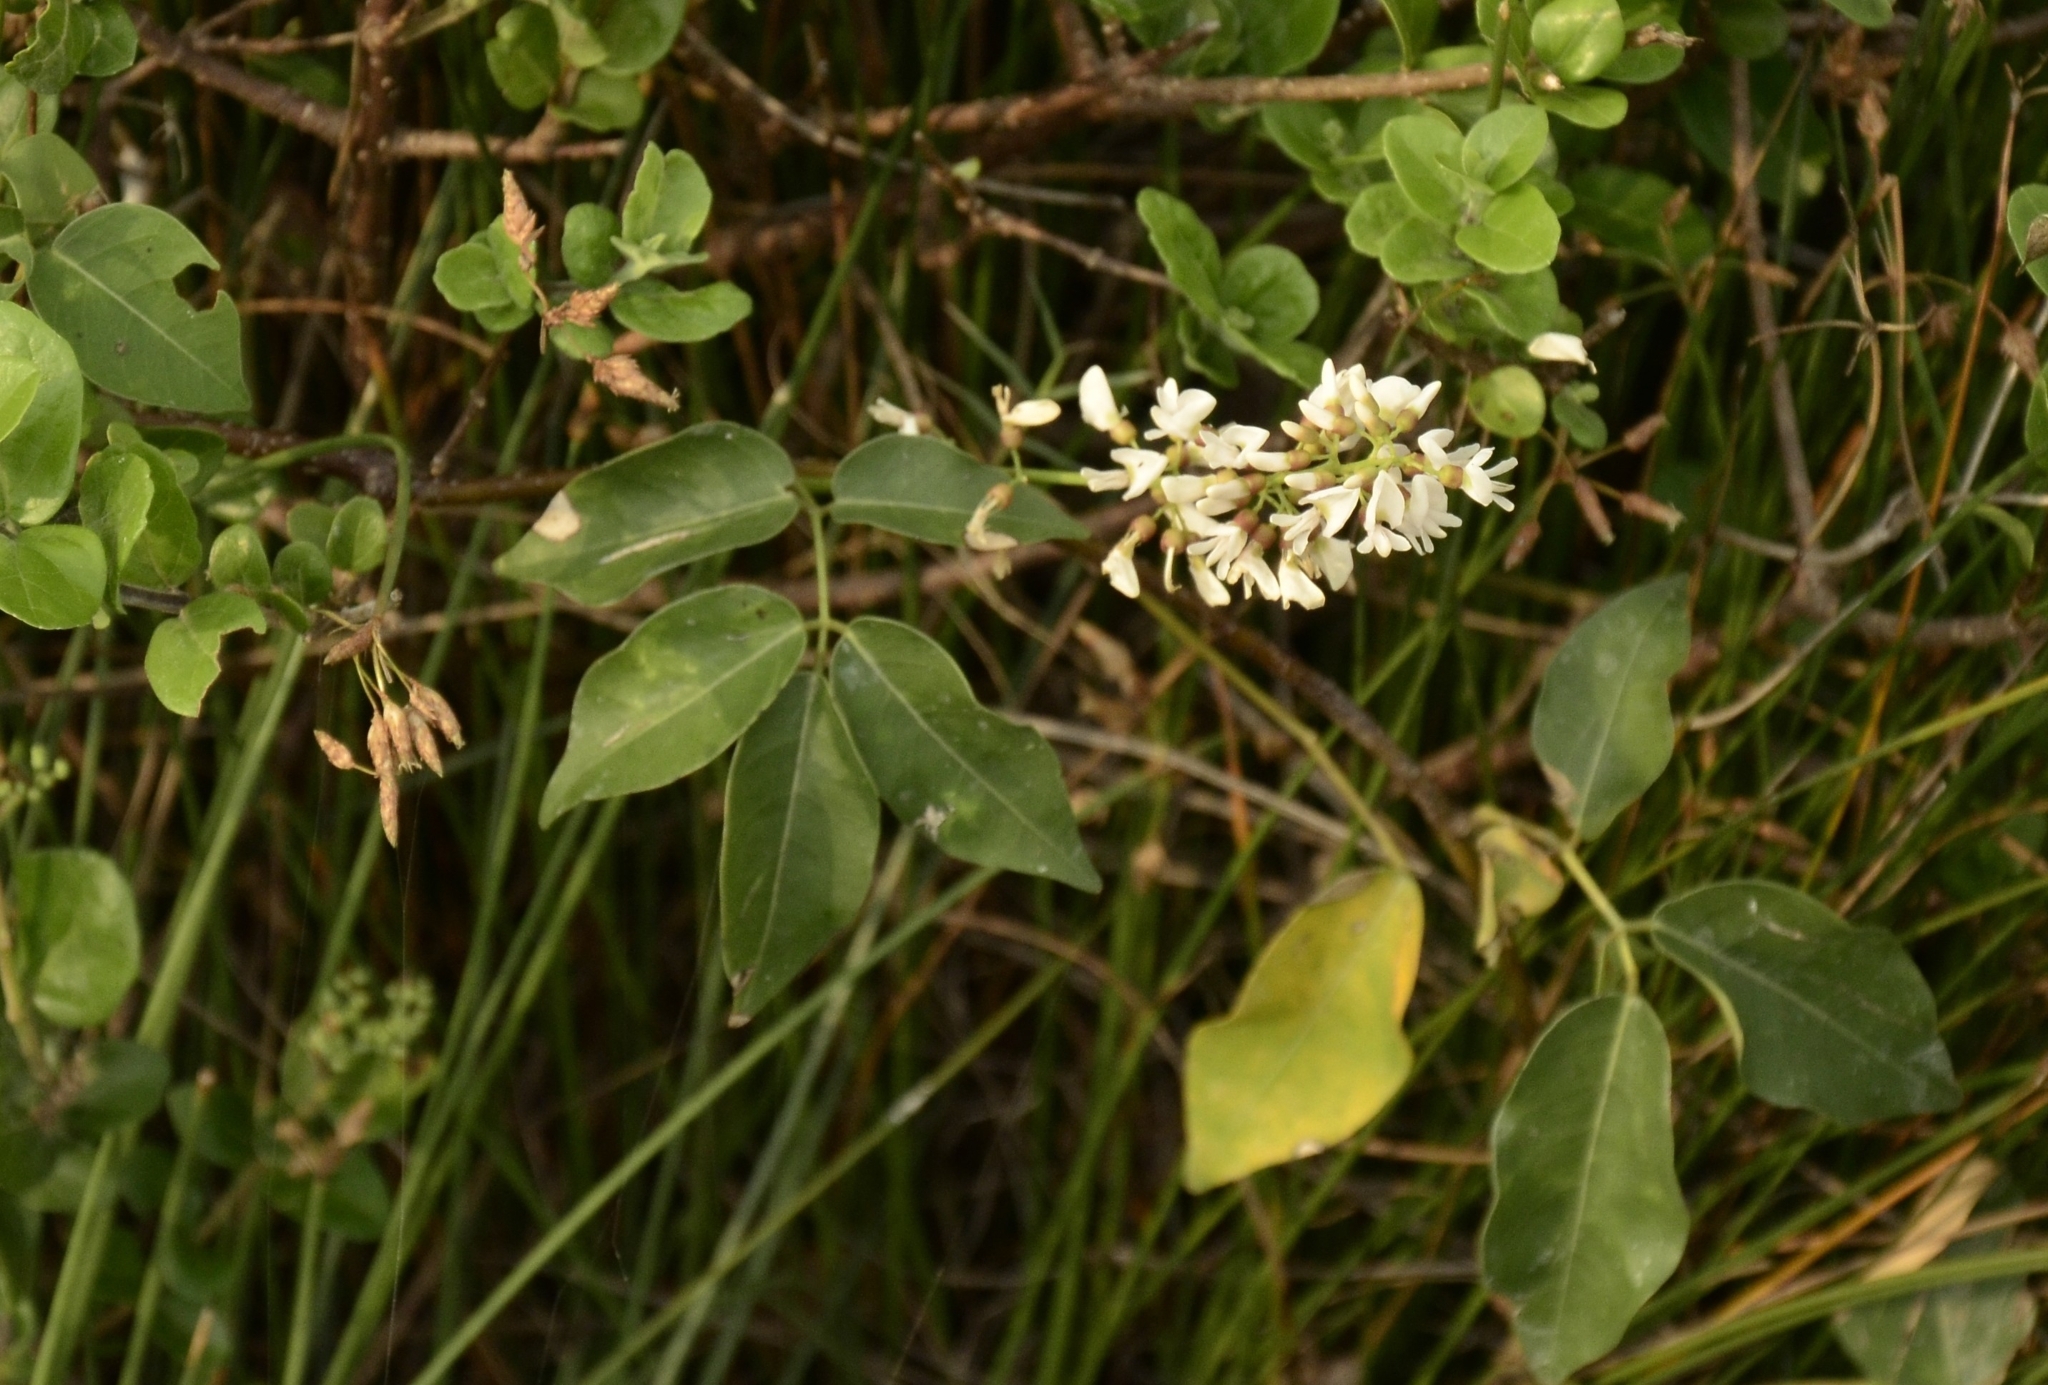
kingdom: Plantae
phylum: Tracheophyta
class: Magnoliopsida
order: Fabales
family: Fabaceae
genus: Derris
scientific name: Derris trifoliata
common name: Three-leaf derris
